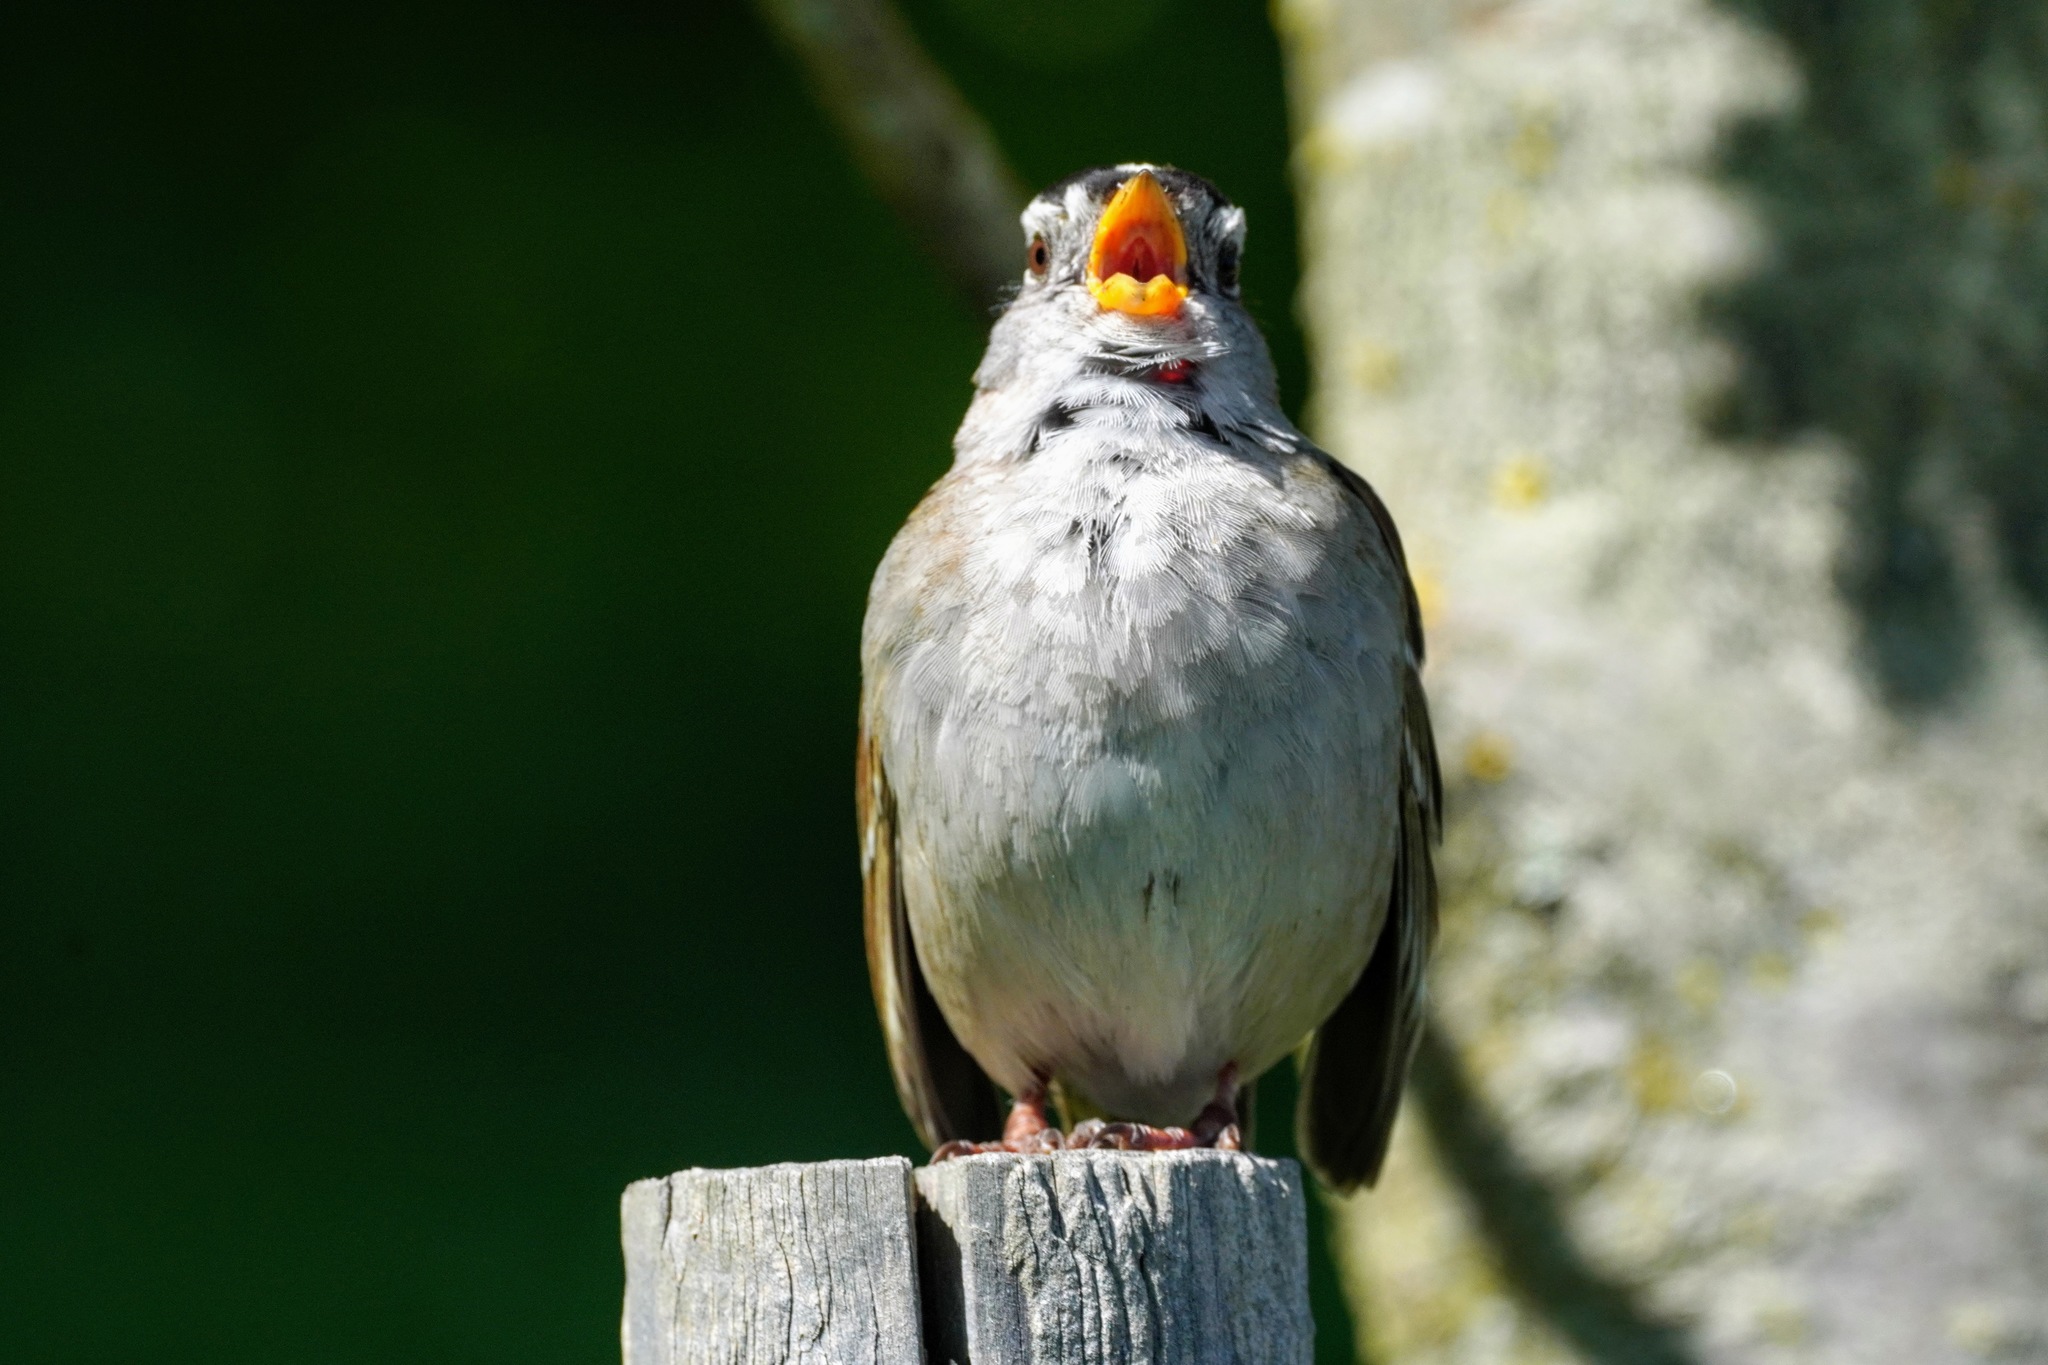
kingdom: Animalia
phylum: Chordata
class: Aves
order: Passeriformes
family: Passerellidae
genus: Zonotrichia
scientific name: Zonotrichia leucophrys
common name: White-crowned sparrow
